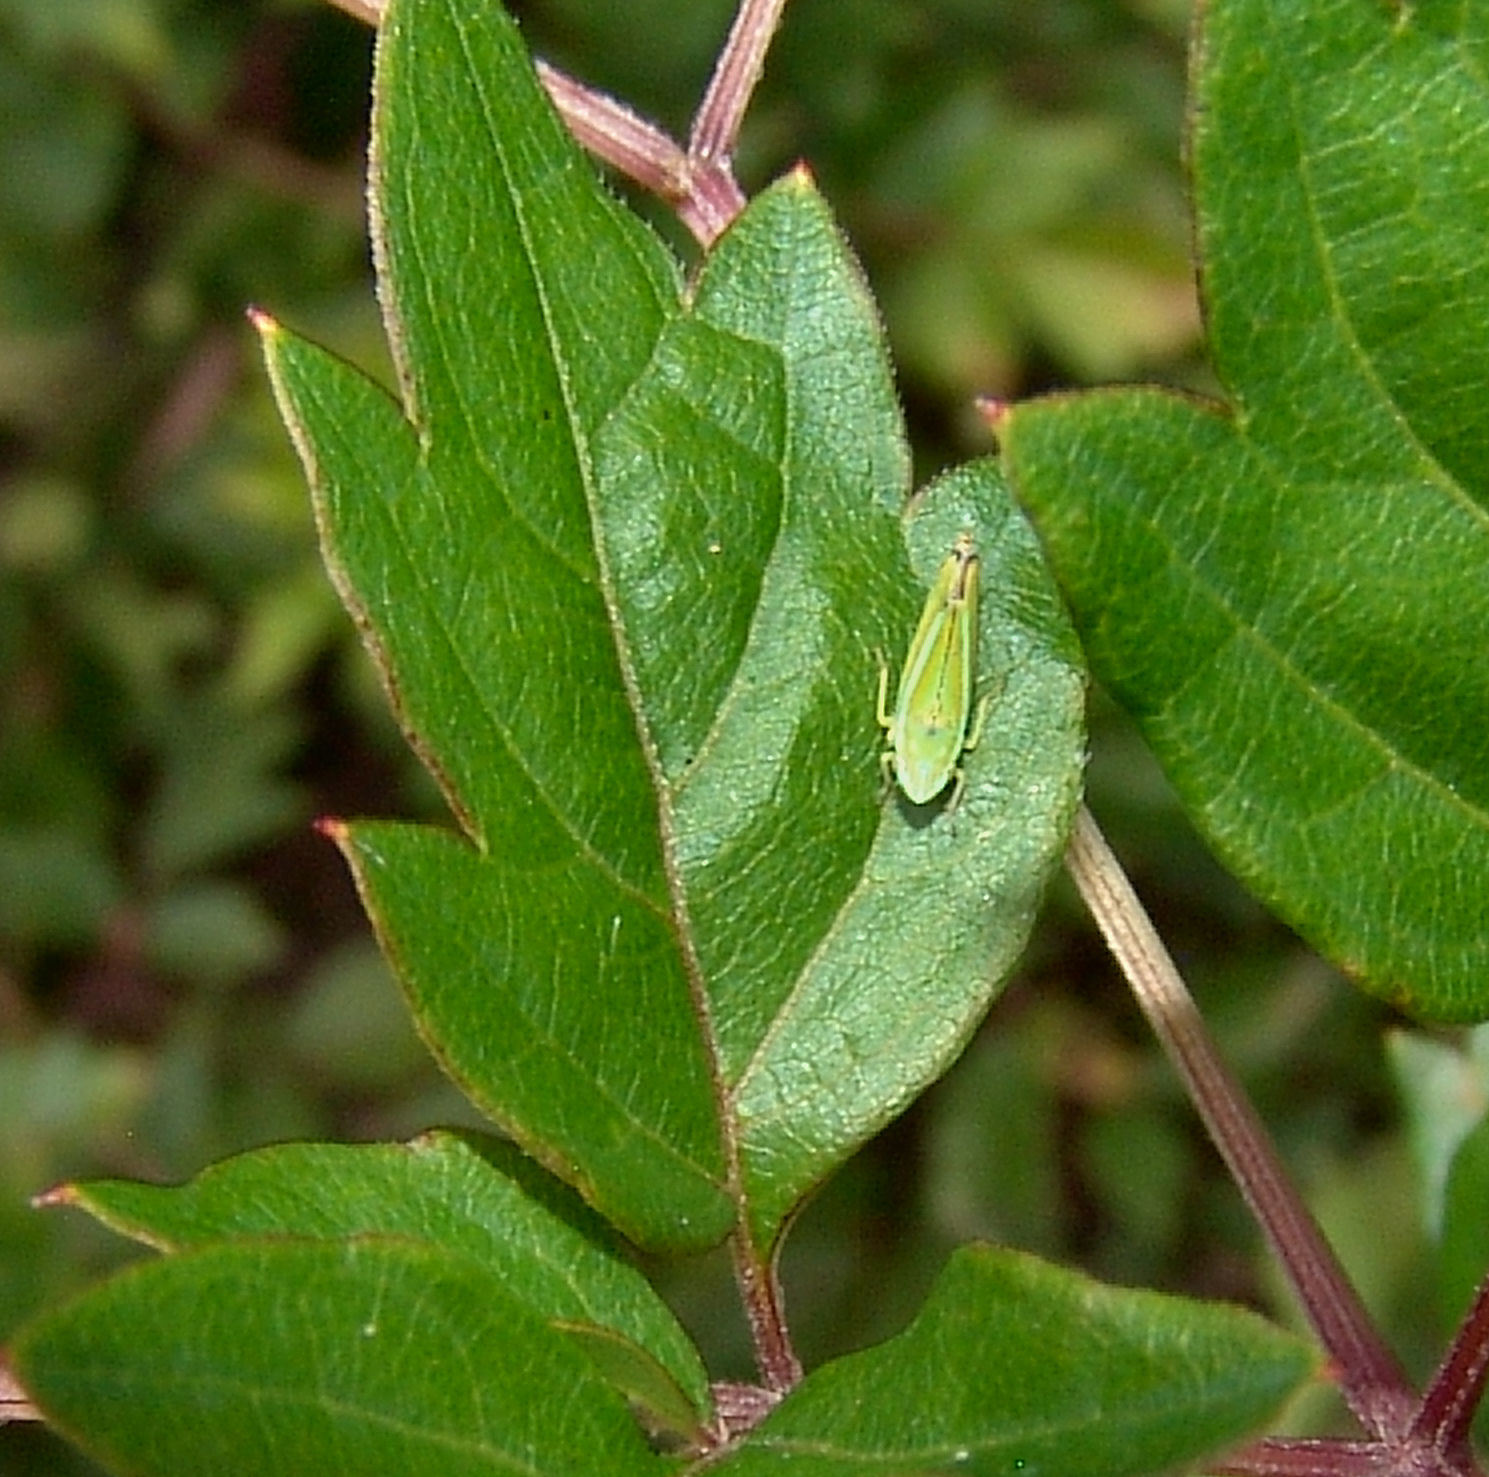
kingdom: Animalia
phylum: Arthropoda
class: Insecta
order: Hemiptera
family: Cicadellidae
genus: Graphocephala
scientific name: Graphocephala versuta
